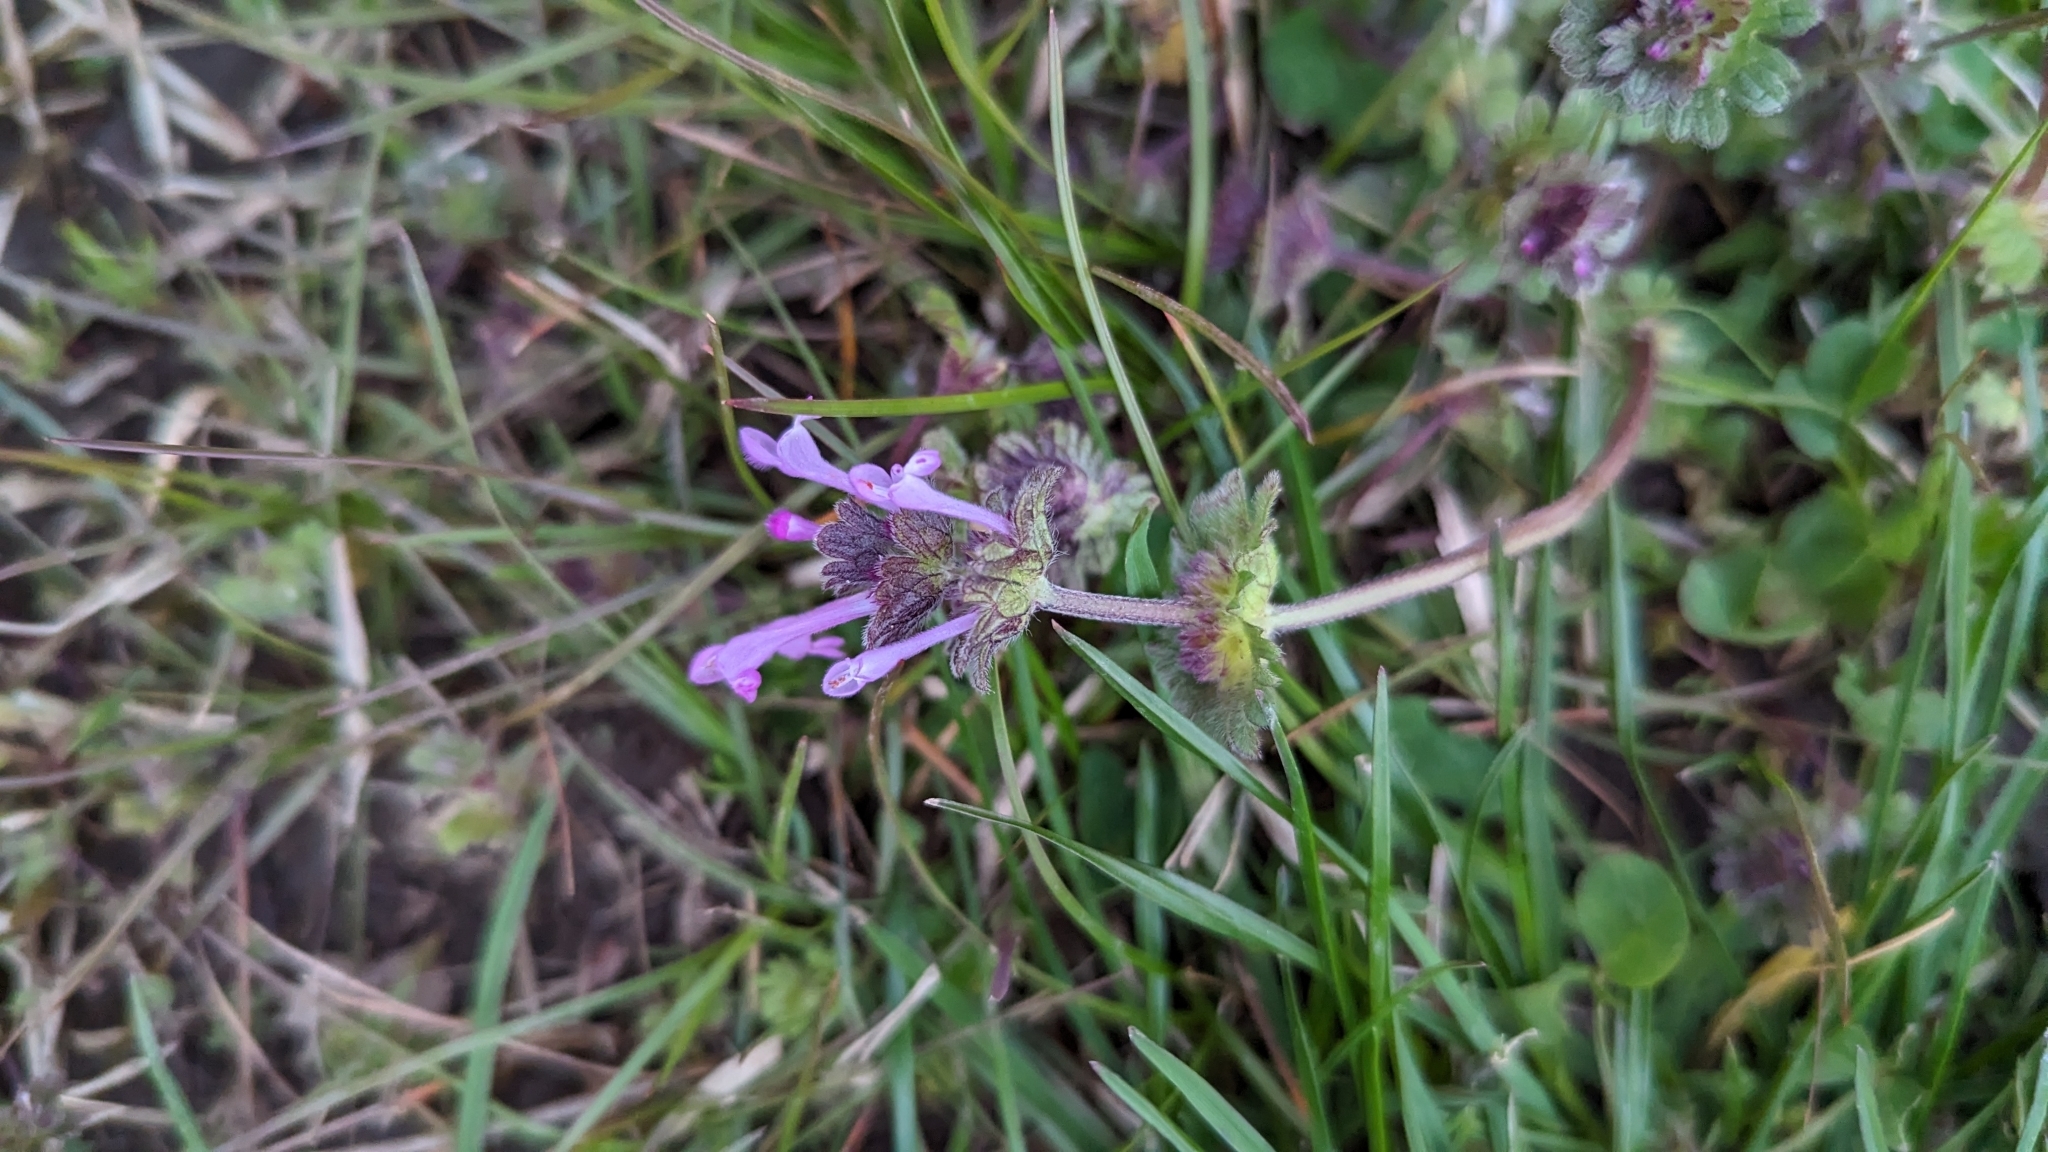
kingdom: Plantae
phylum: Tracheophyta
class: Magnoliopsida
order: Lamiales
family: Lamiaceae
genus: Lamium
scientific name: Lamium amplexicaule
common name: Henbit dead-nettle
